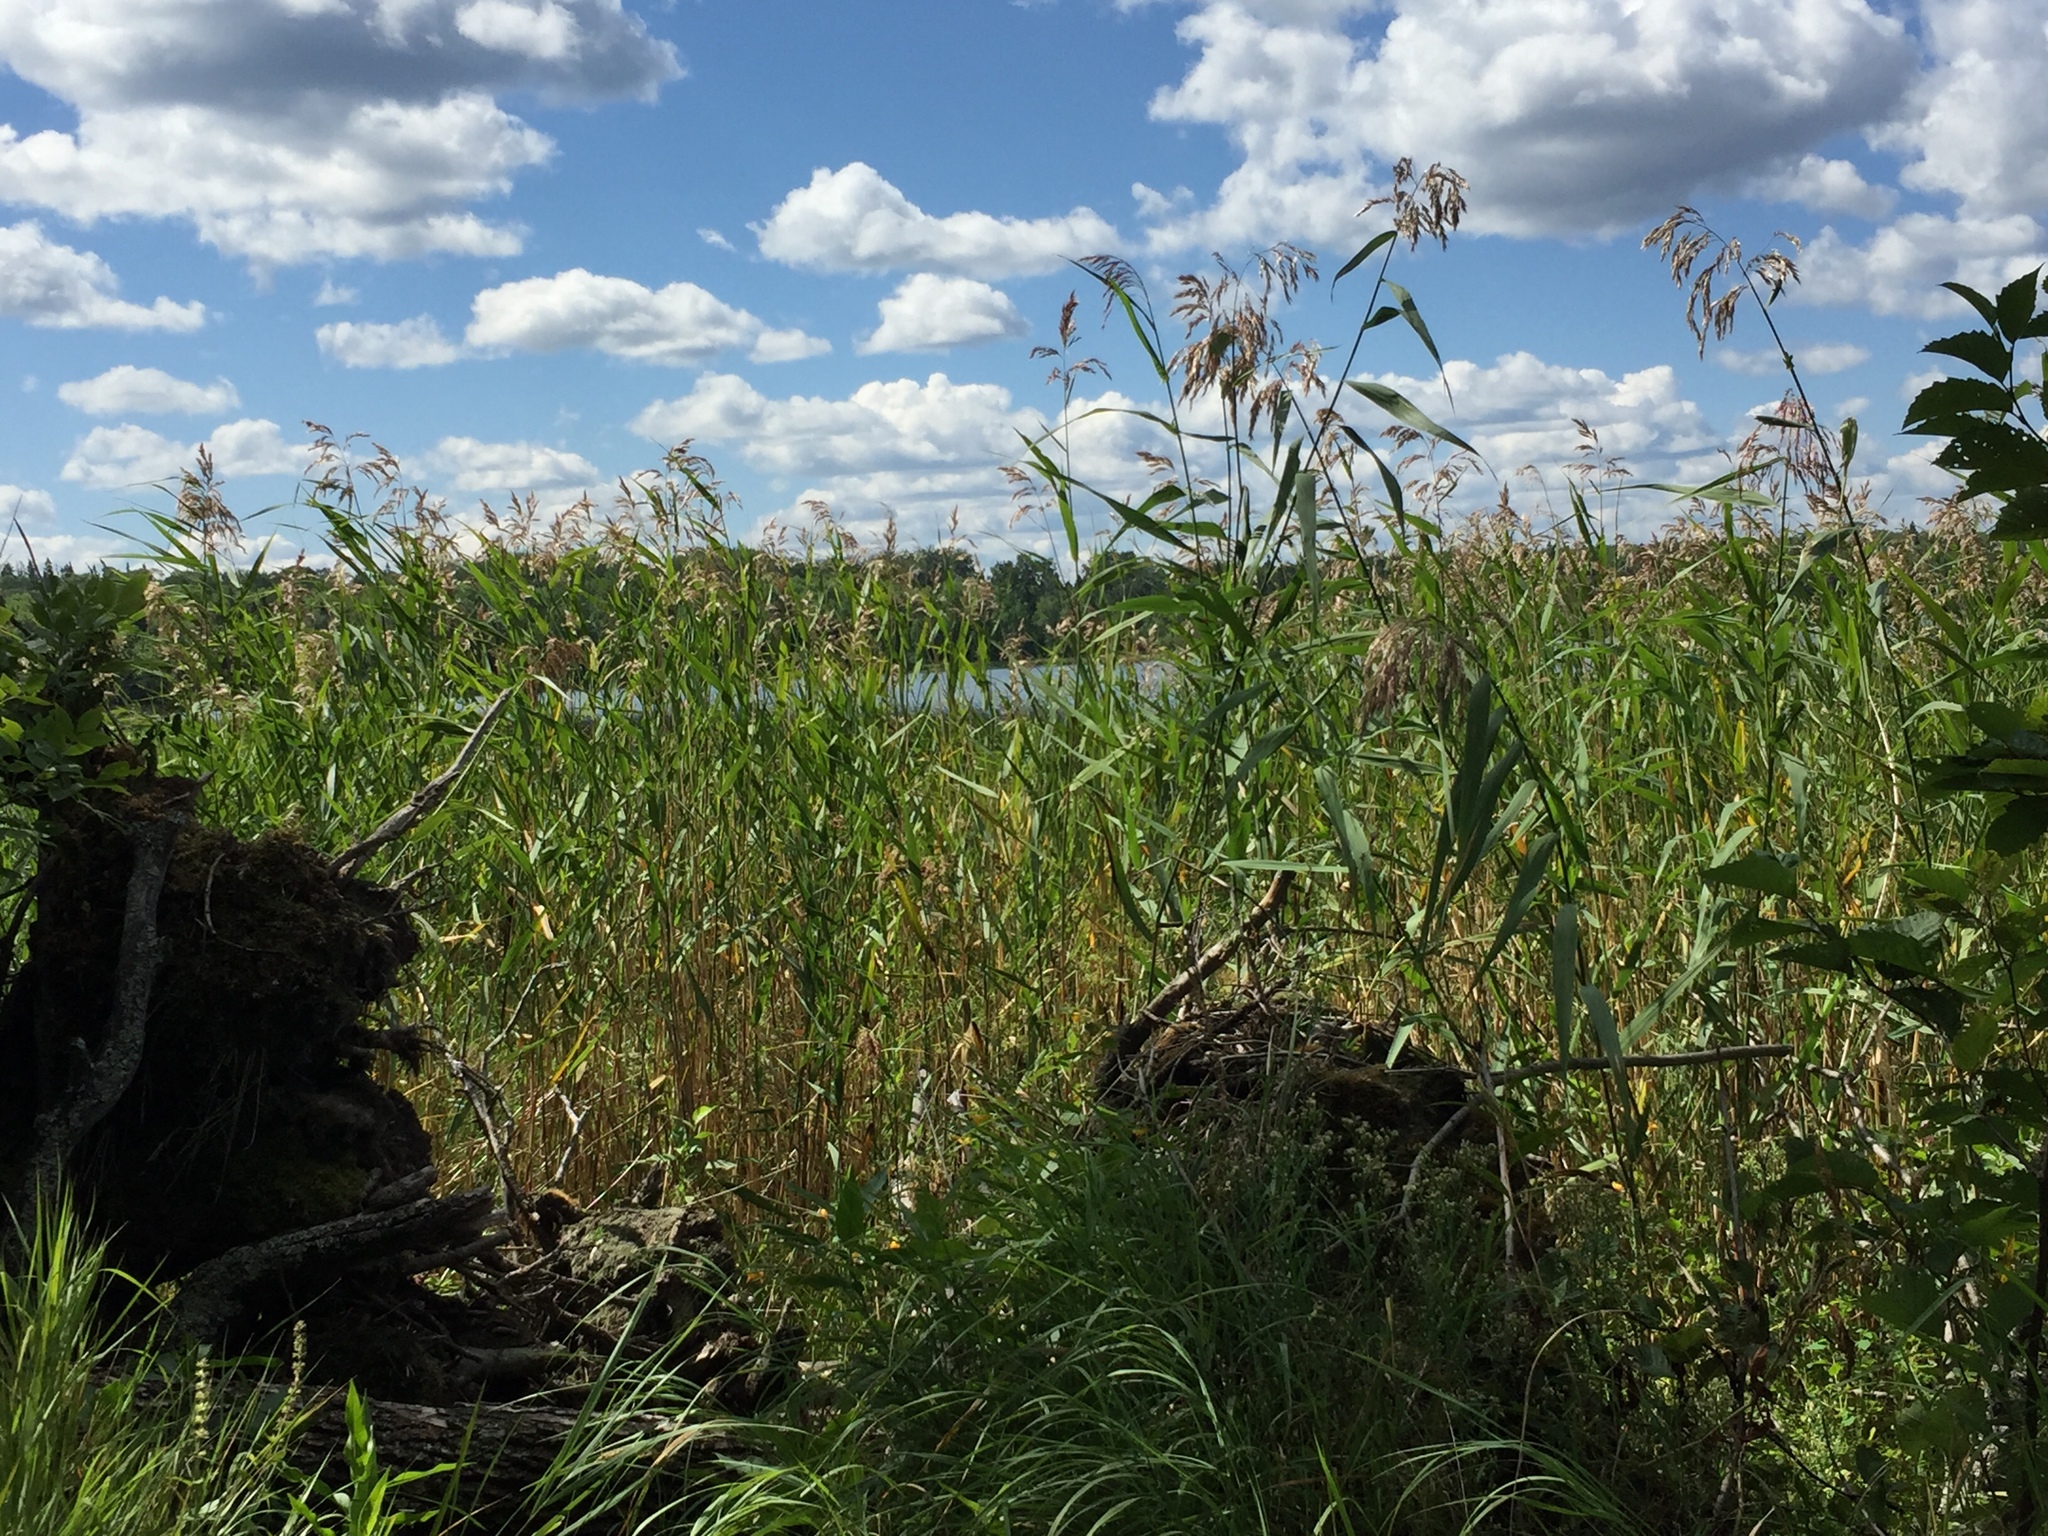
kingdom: Plantae
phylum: Tracheophyta
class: Liliopsida
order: Poales
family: Poaceae
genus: Phragmites
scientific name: Phragmites australis
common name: Common reed
